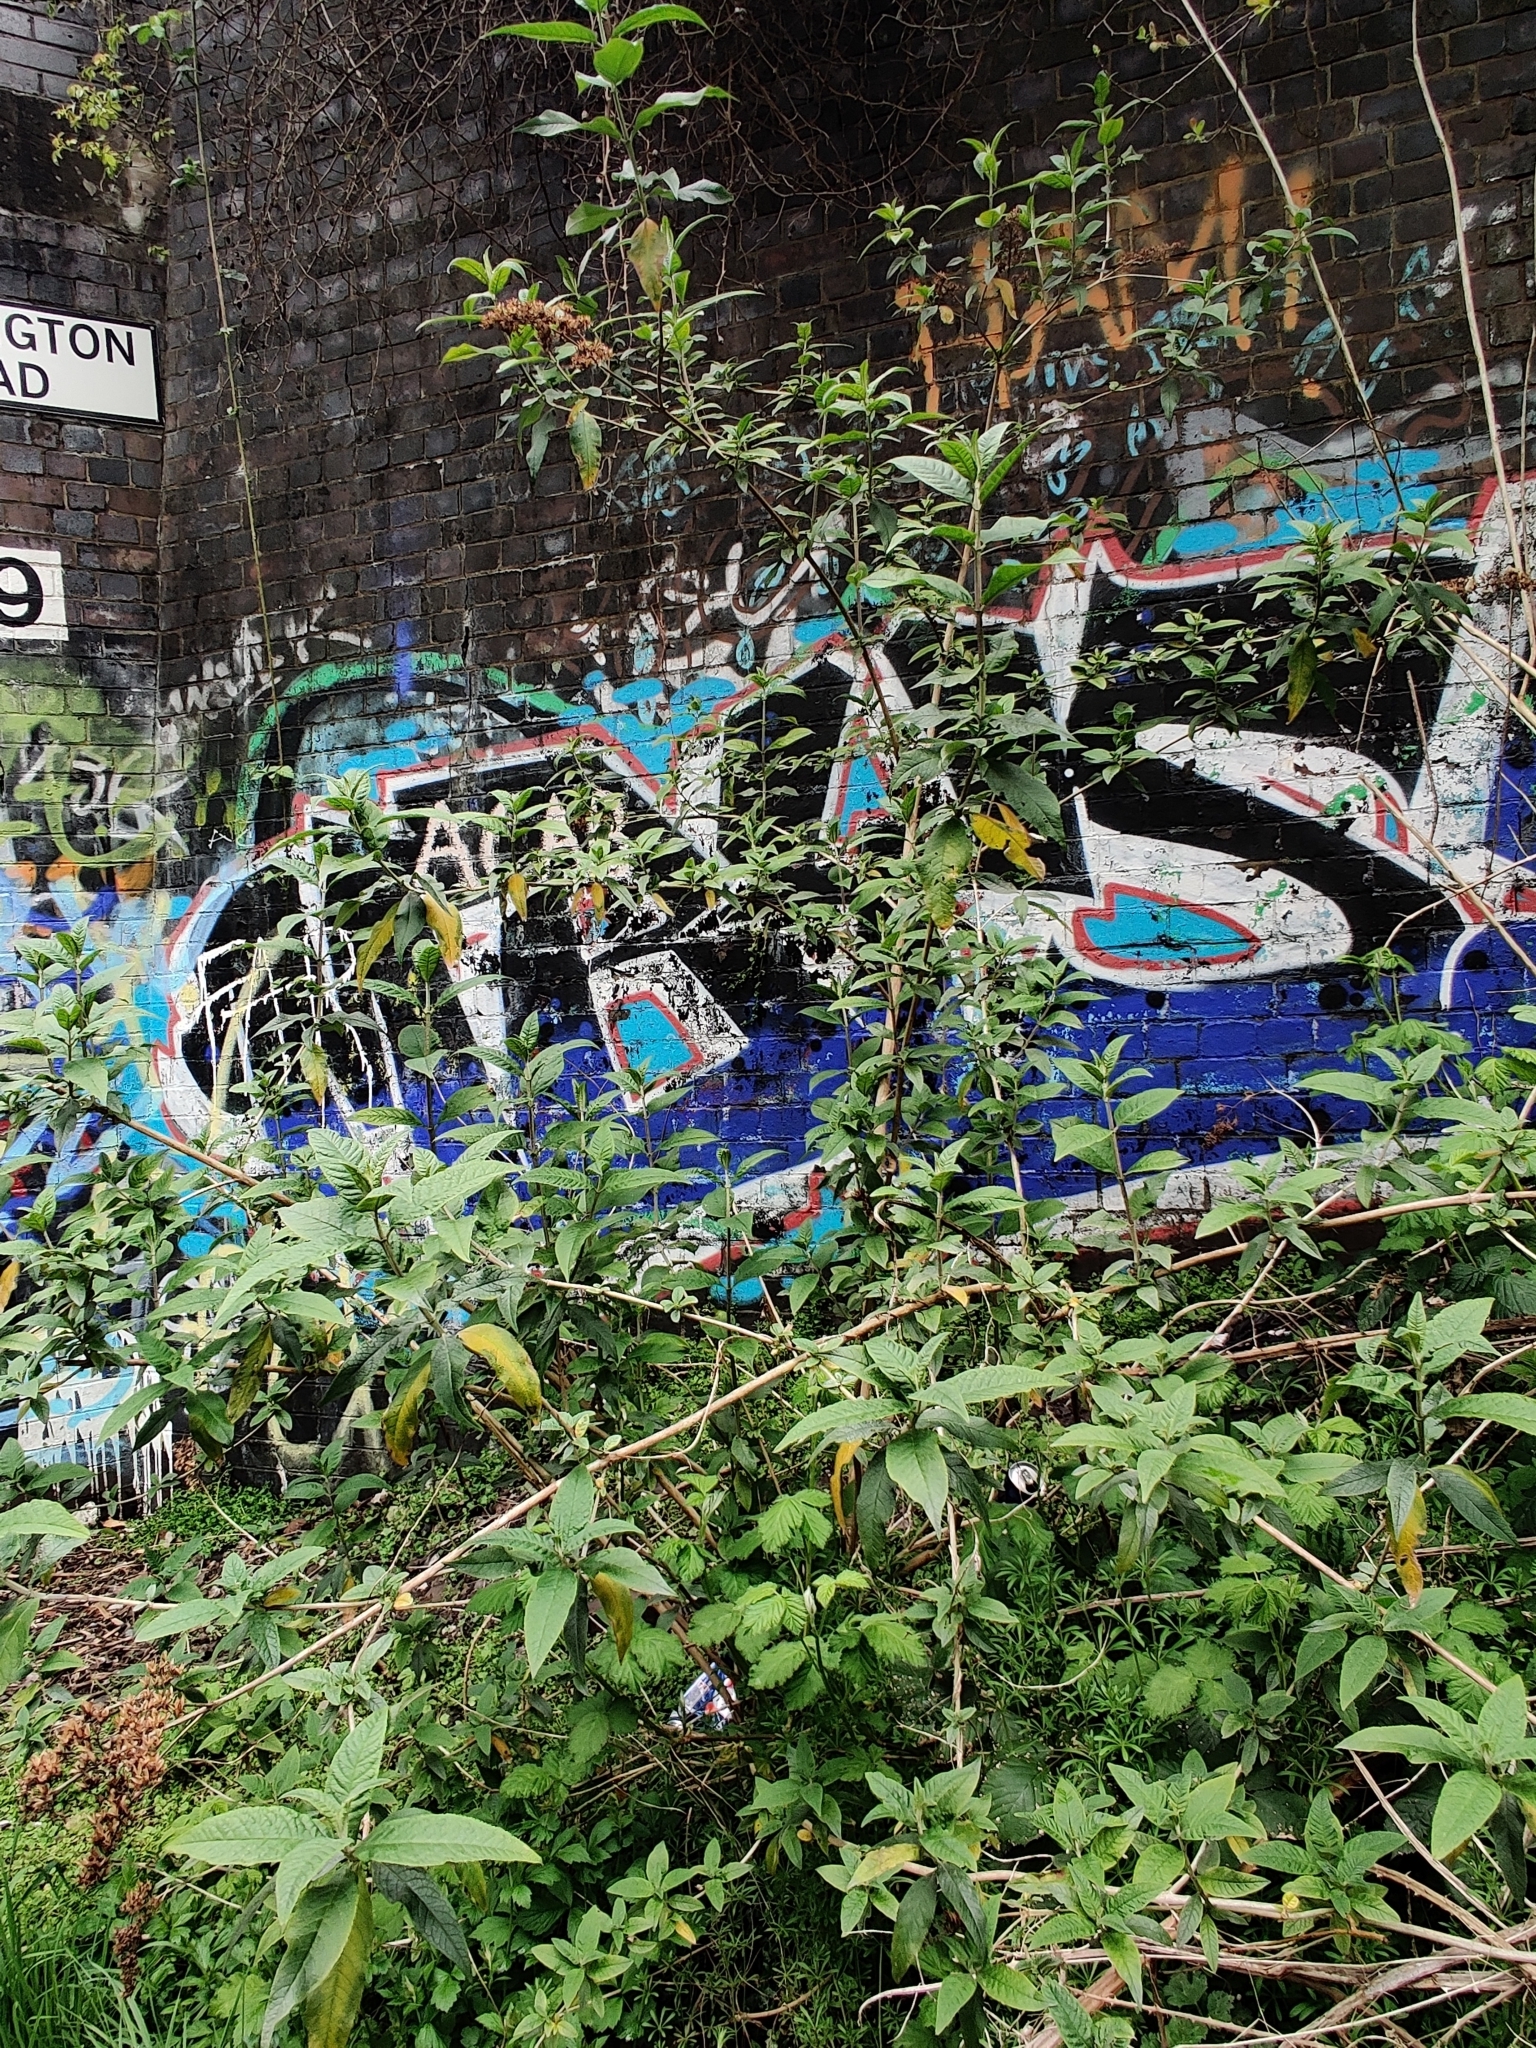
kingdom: Plantae
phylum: Tracheophyta
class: Magnoliopsida
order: Lamiales
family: Scrophulariaceae
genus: Buddleja
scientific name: Buddleja davidii
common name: Butterfly-bush
